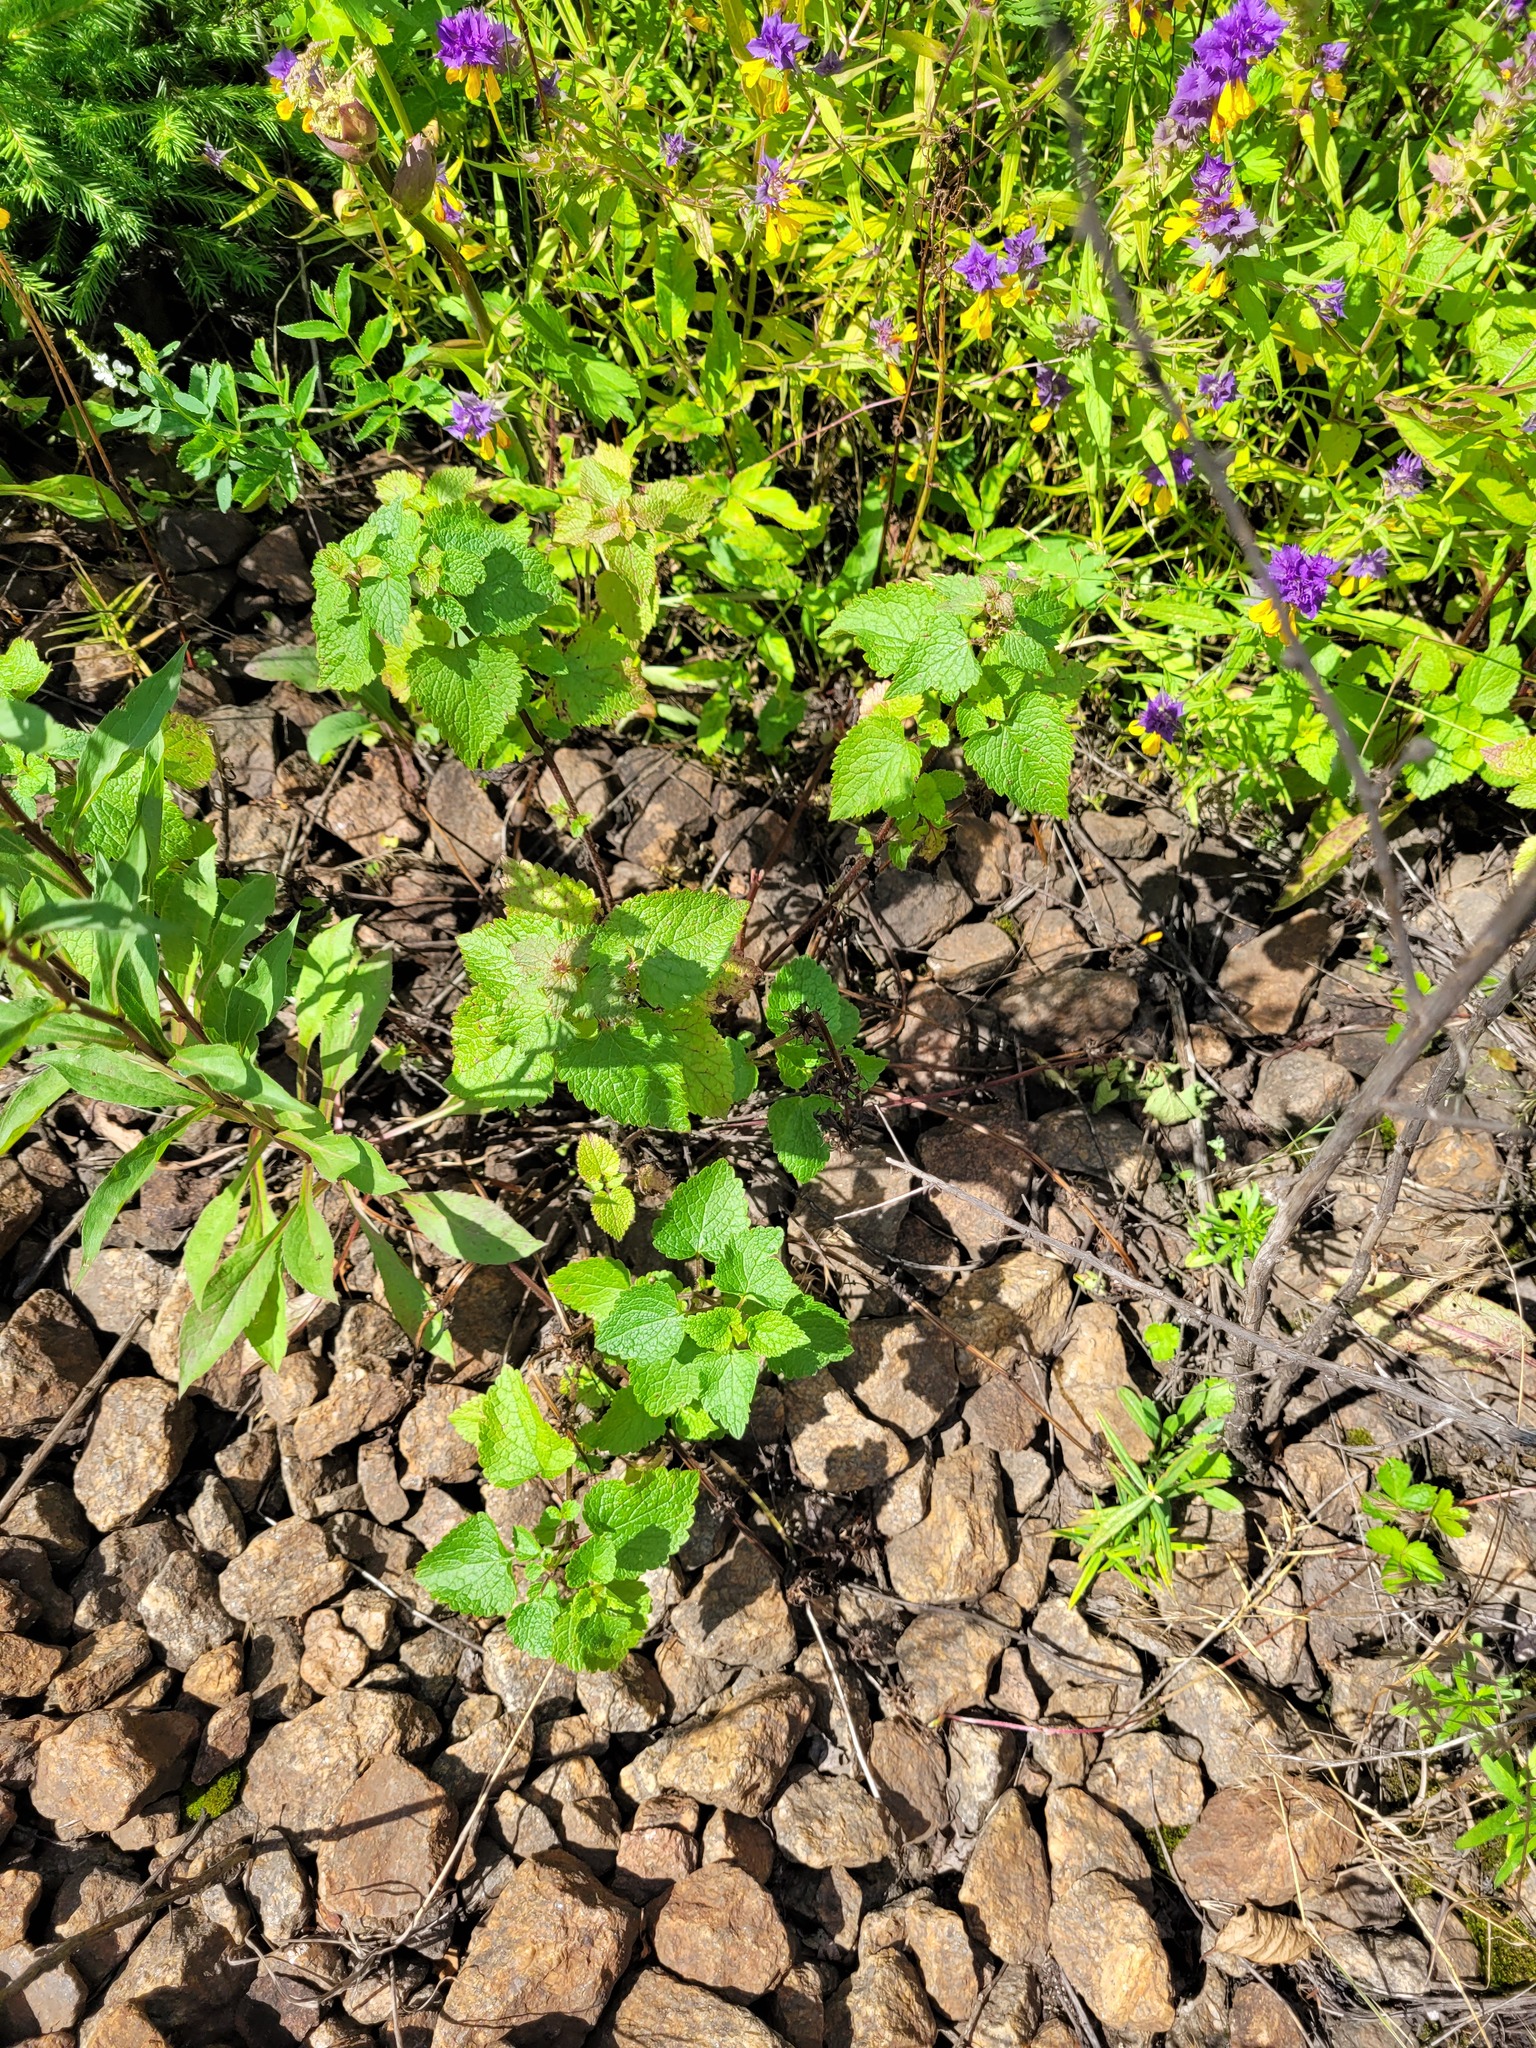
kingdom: Plantae
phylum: Tracheophyta
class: Magnoliopsida
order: Lamiales
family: Lamiaceae
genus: Lamium
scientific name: Lamium maculatum
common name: Spotted dead-nettle
